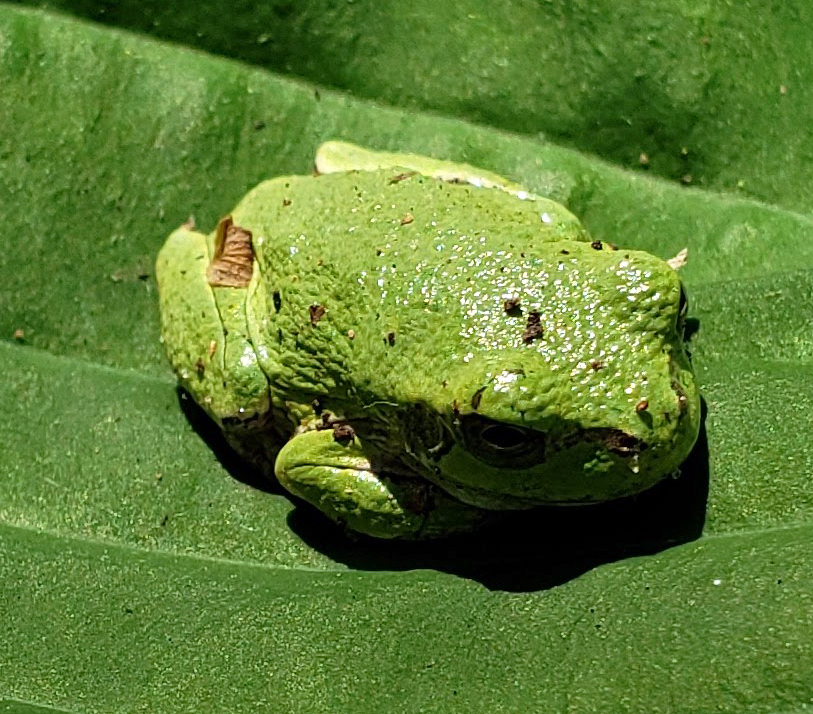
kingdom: Animalia
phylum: Chordata
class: Amphibia
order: Anura
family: Hylidae
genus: Hyla
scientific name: Hyla
